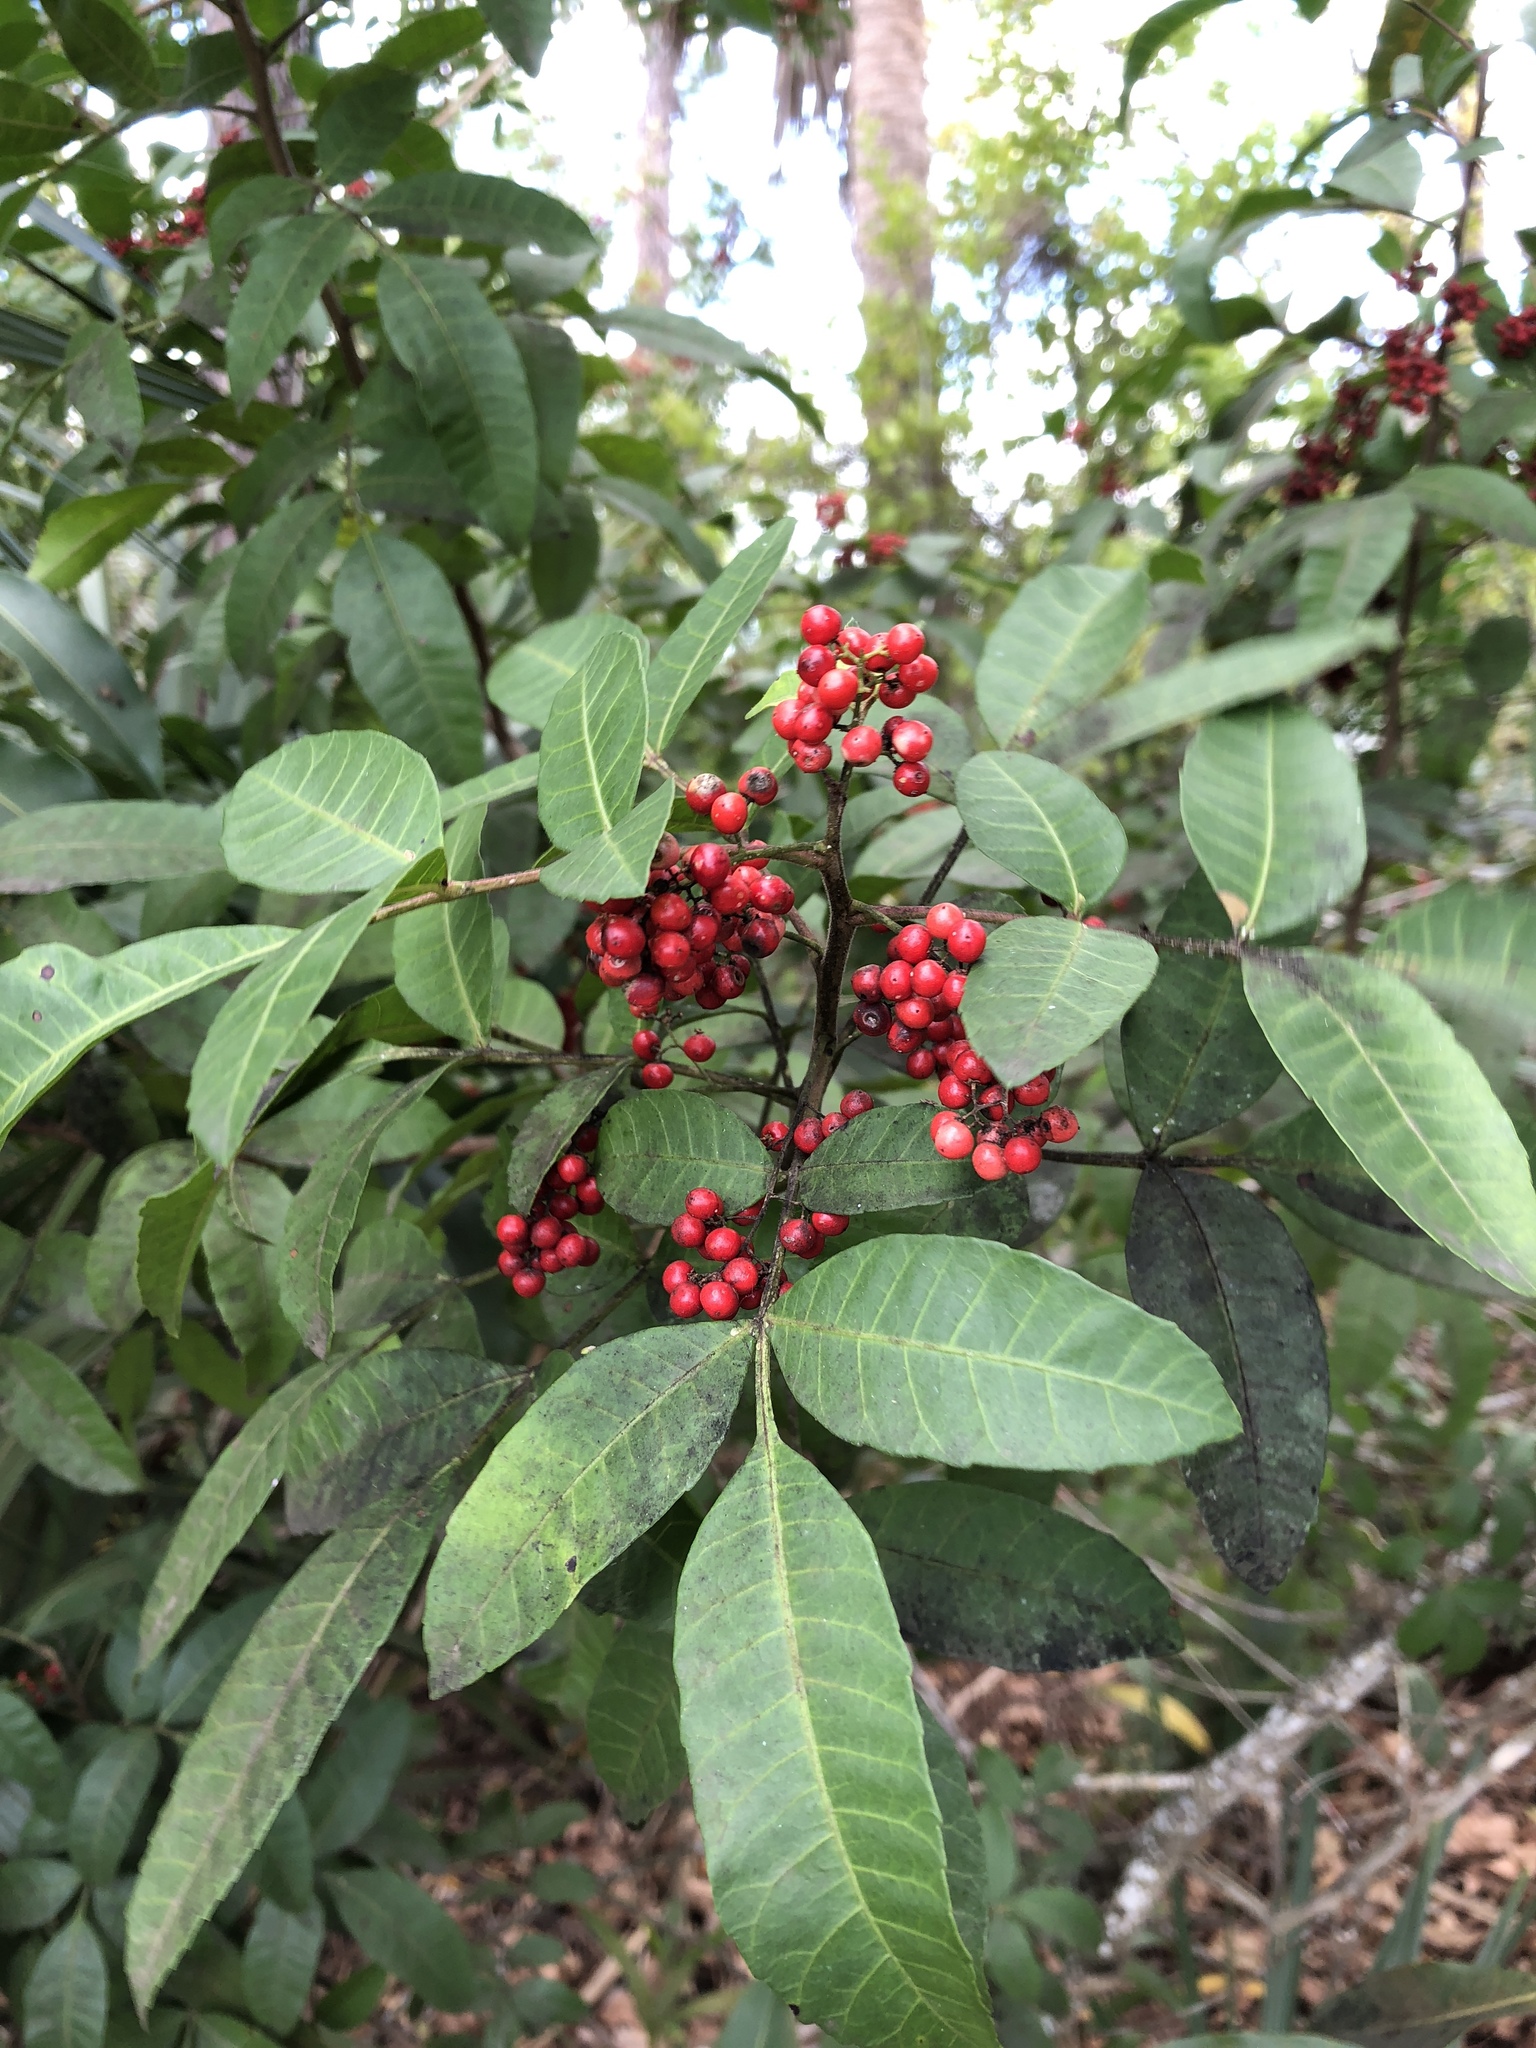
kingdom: Plantae
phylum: Tracheophyta
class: Magnoliopsida
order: Sapindales
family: Anacardiaceae
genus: Schinus
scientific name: Schinus terebinthifolia
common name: Brazilian peppertree
